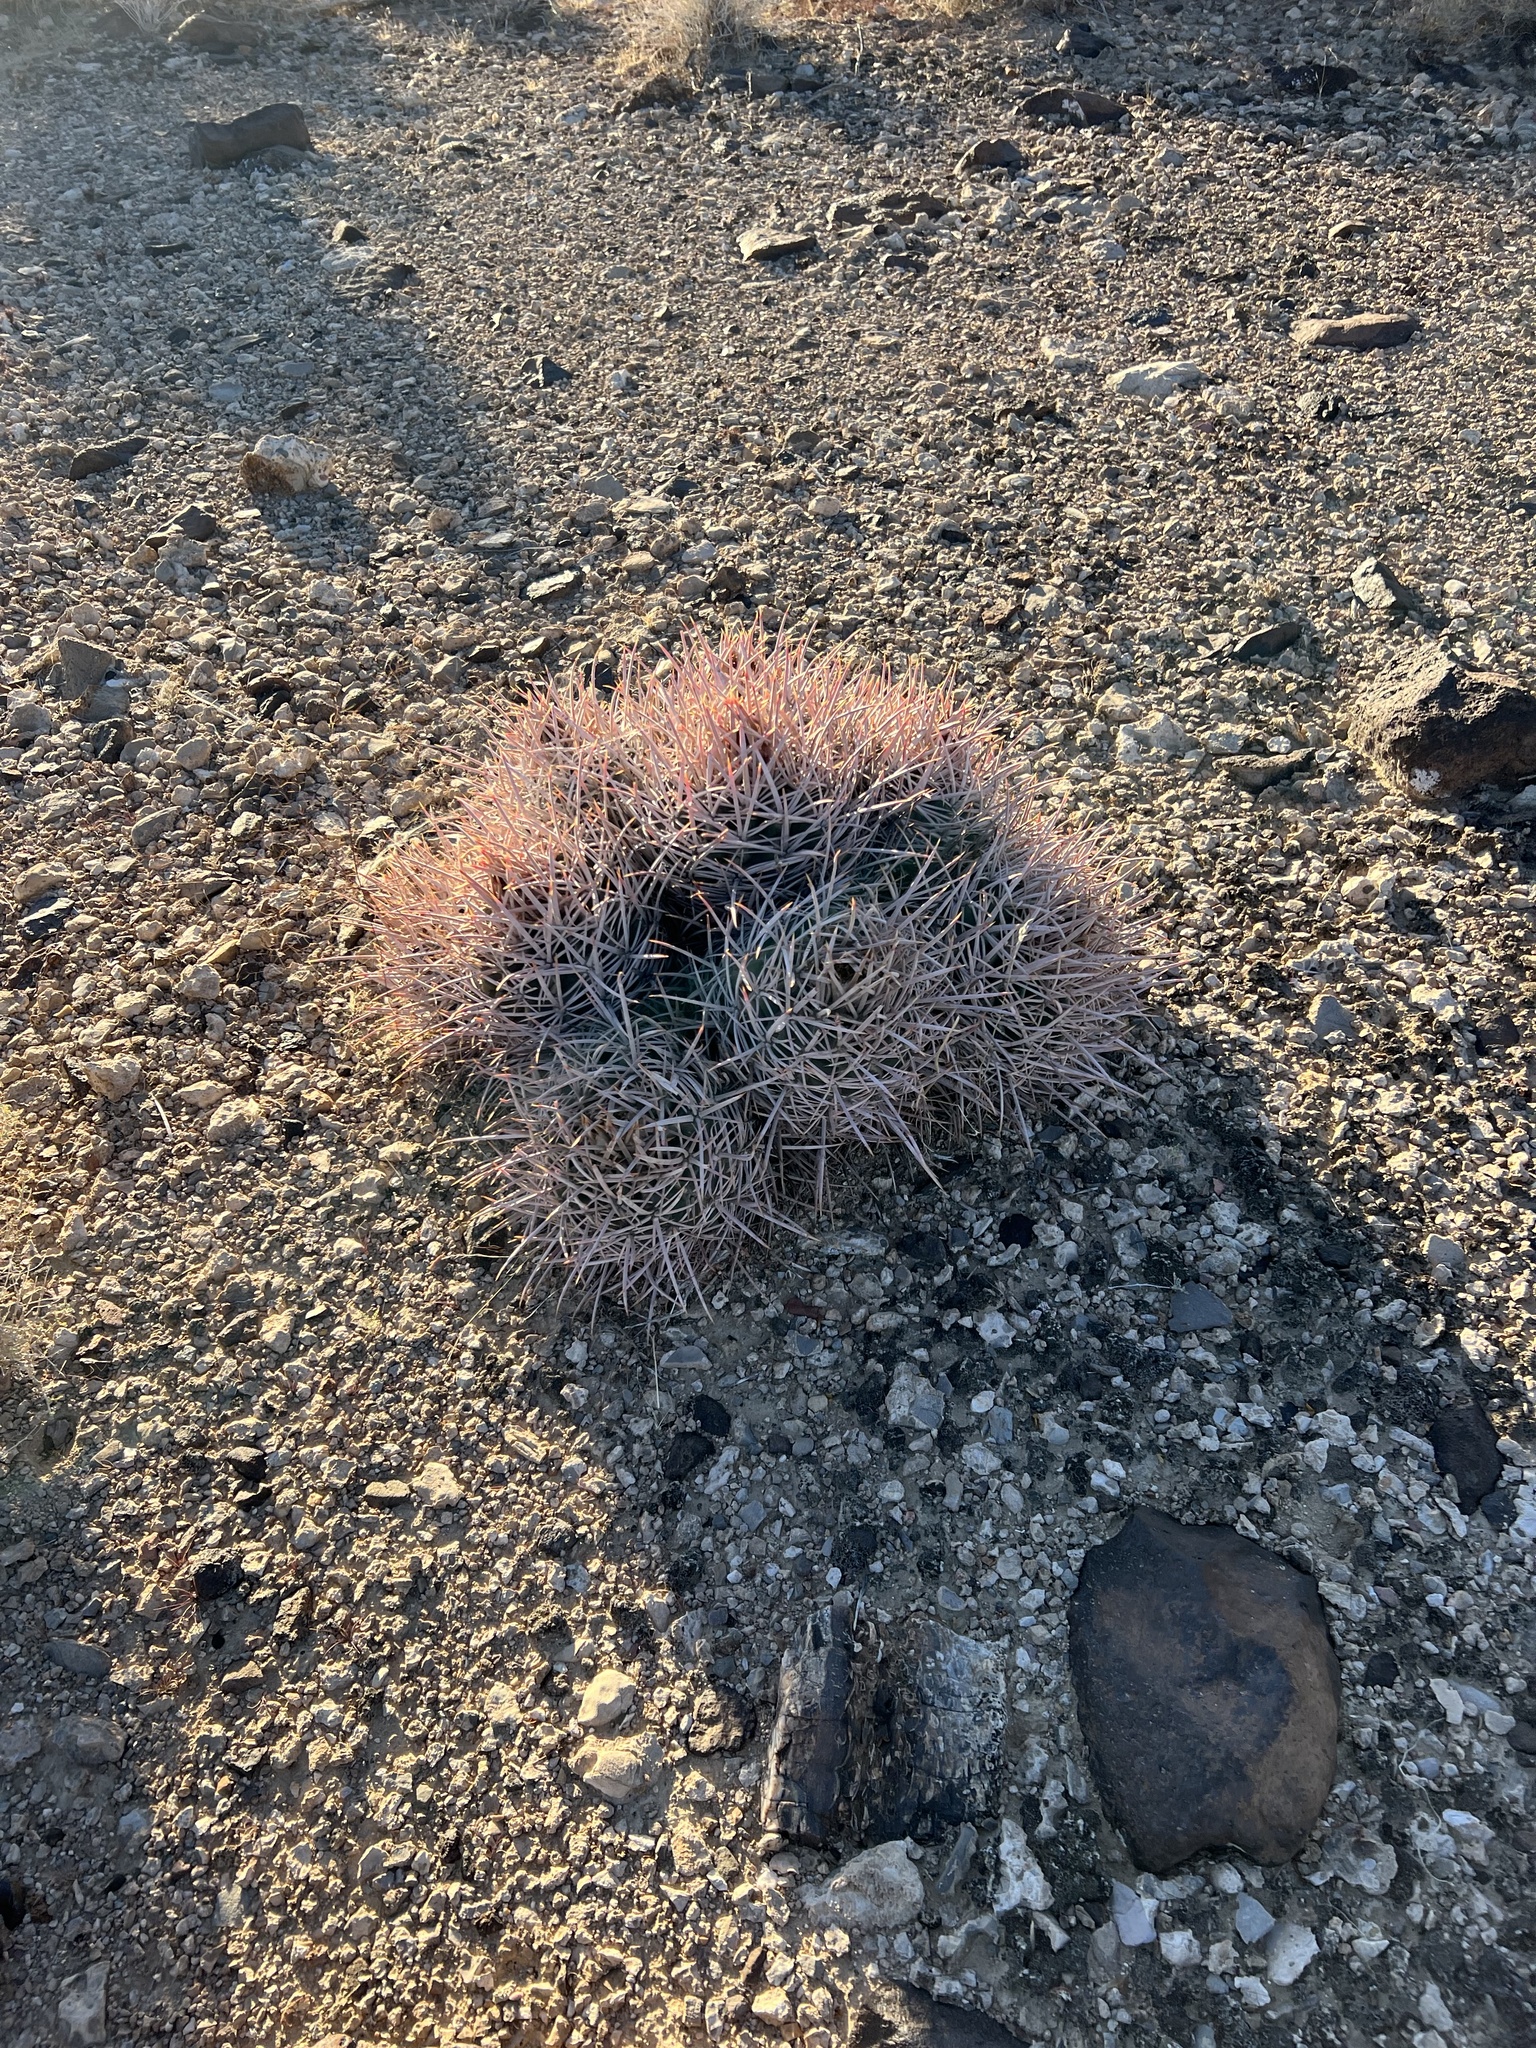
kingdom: Plantae
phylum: Tracheophyta
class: Magnoliopsida
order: Caryophyllales
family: Cactaceae
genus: Echinocactus
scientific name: Echinocactus polycephalus
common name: Cottontop cactus
